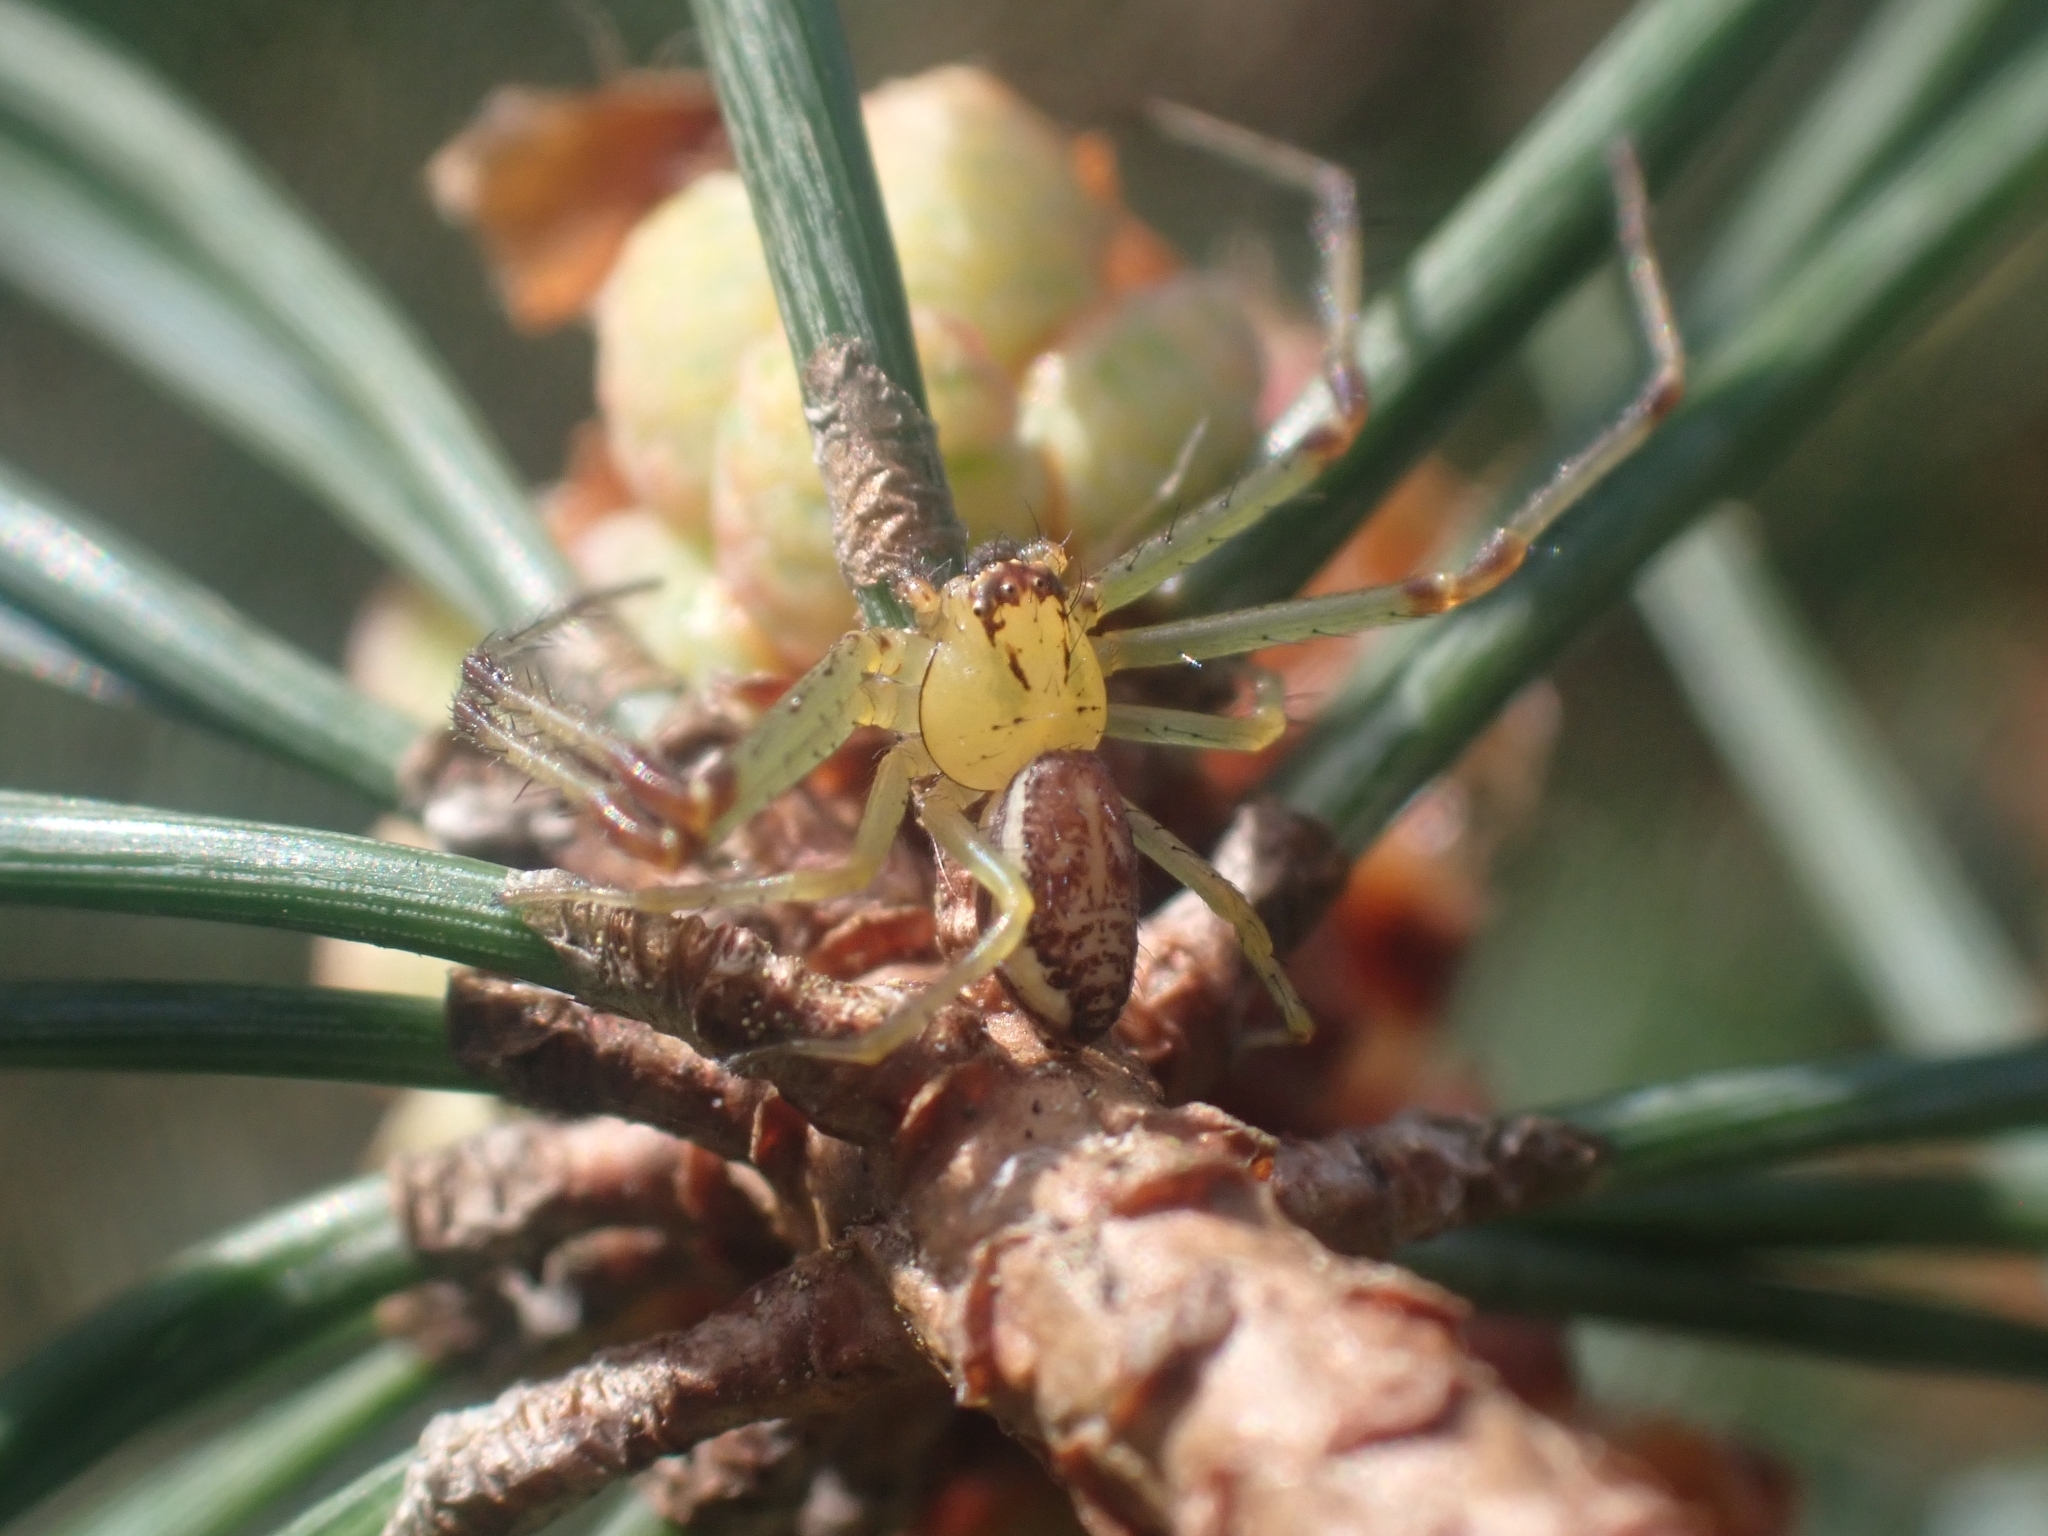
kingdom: Animalia
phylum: Arthropoda
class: Arachnida
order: Araneae
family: Thomisidae
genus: Diaea
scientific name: Diaea dorsata
